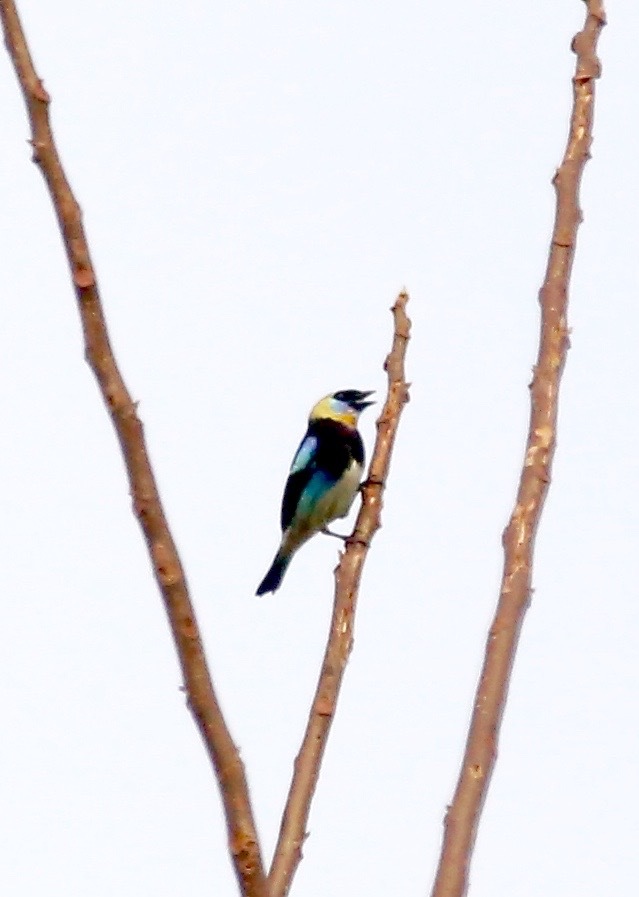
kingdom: Animalia
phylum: Chordata
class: Aves
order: Passeriformes
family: Thraupidae
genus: Stilpnia
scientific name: Stilpnia larvata
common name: Golden-hooded tanager
